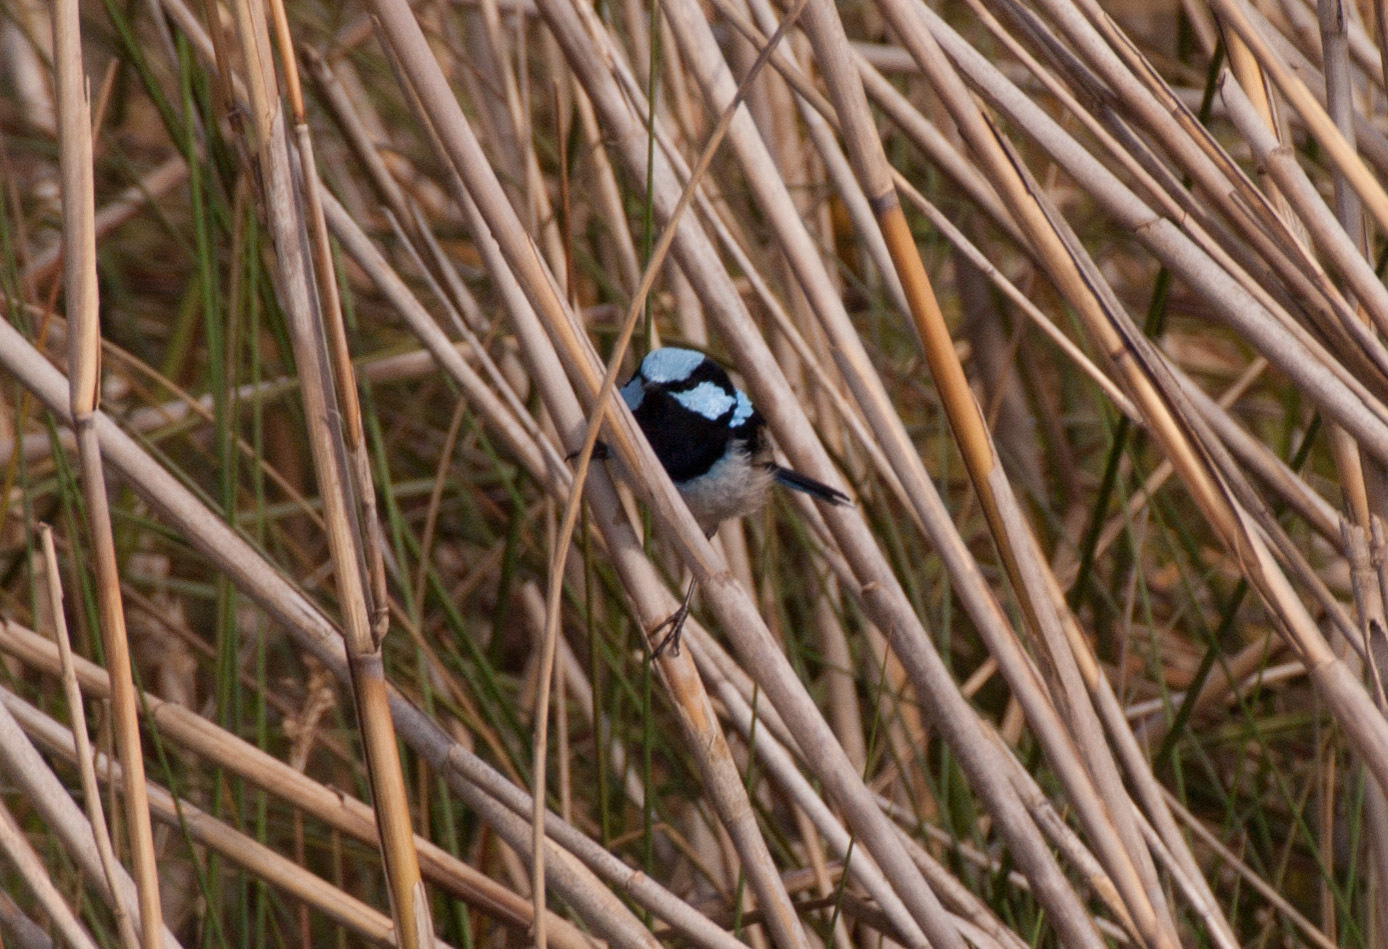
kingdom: Animalia
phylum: Chordata
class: Aves
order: Passeriformes
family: Maluridae
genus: Malurus
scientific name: Malurus cyaneus
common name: Superb fairywren
